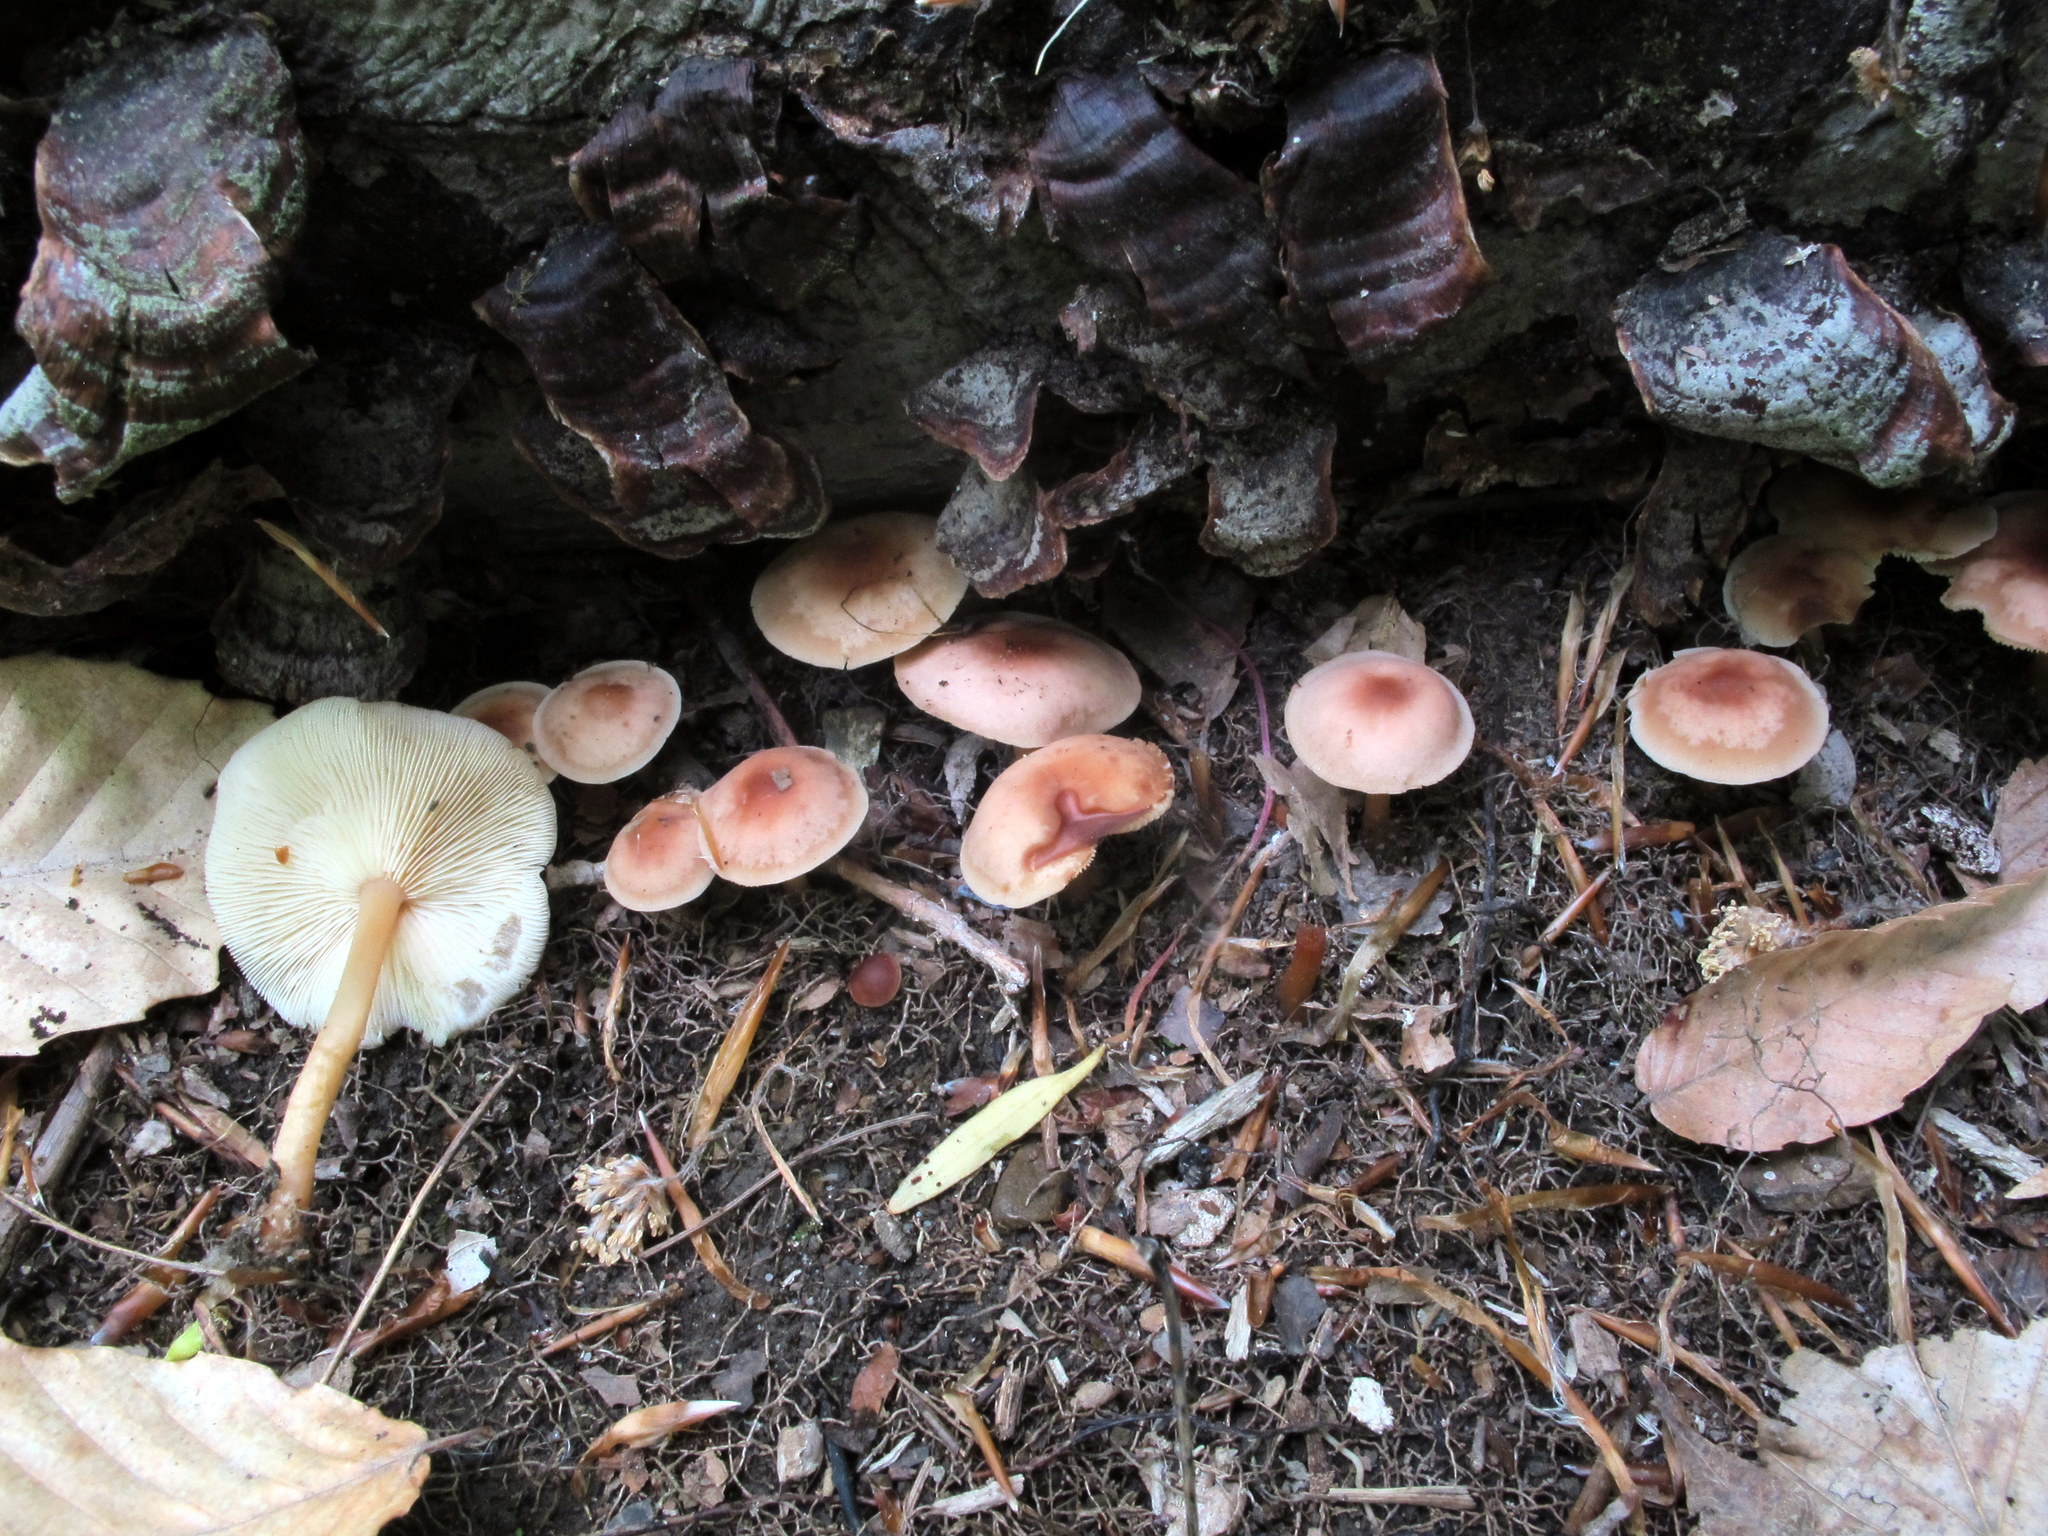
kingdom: Fungi
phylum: Basidiomycota
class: Agaricomycetes
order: Agaricales
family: Omphalotaceae
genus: Gymnopus
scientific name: Gymnopus earleae
